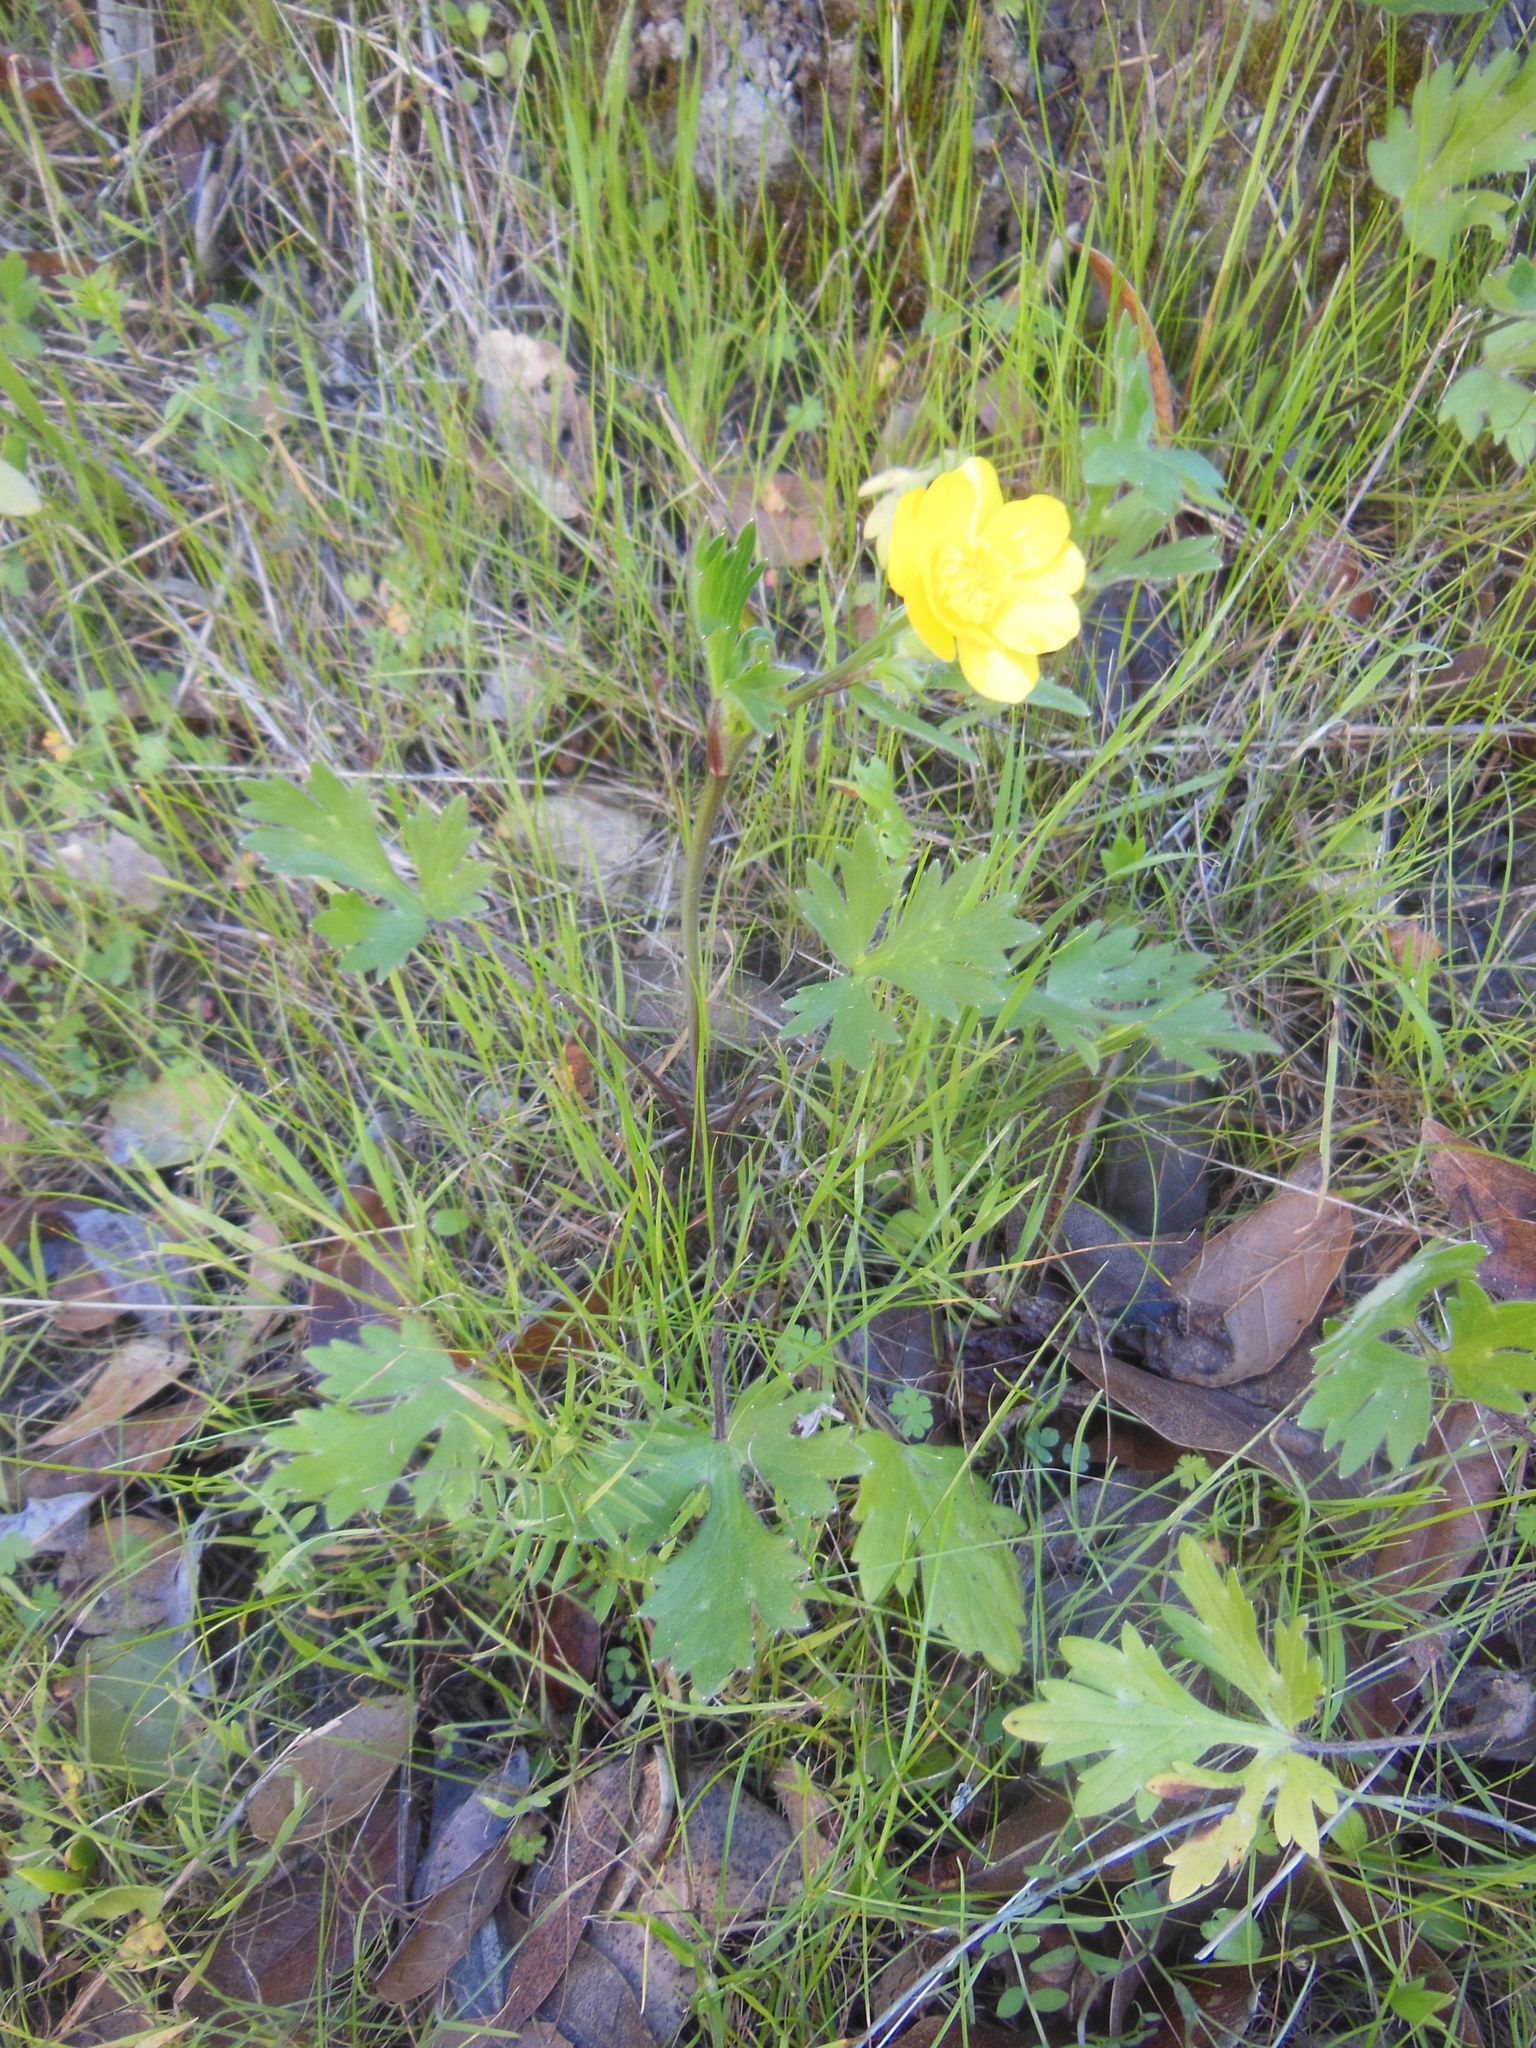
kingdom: Plantae
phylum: Tracheophyta
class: Magnoliopsida
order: Ranunculales
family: Ranunculaceae
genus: Ranunculus
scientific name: Ranunculus californicus
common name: California buttercup
